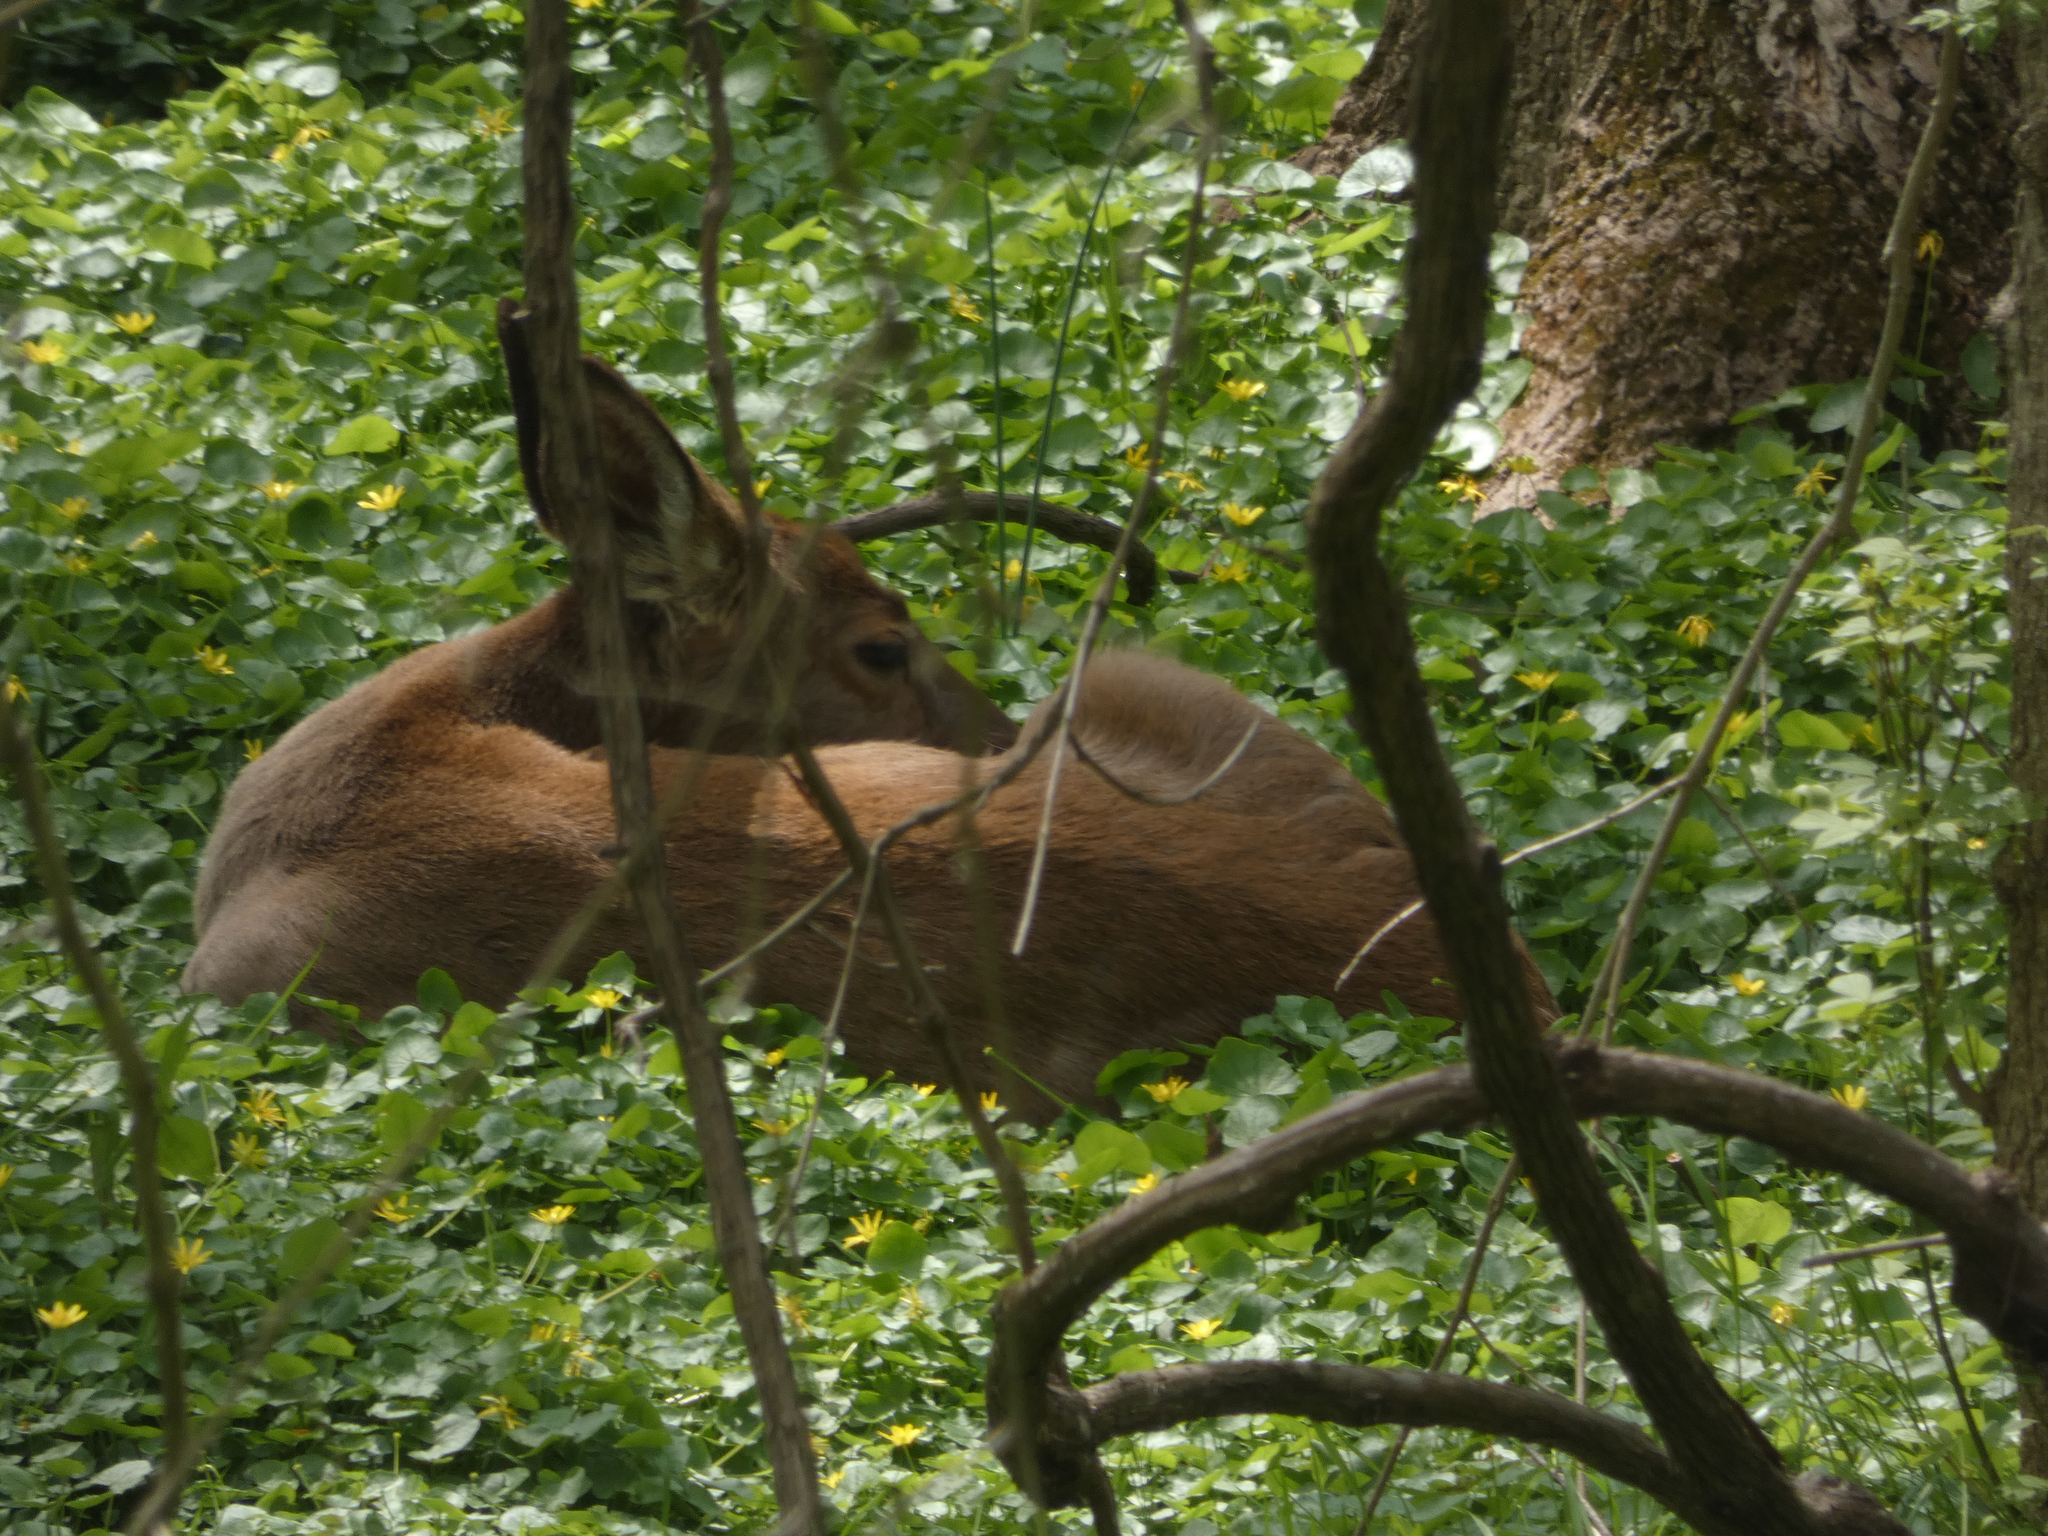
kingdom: Animalia
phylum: Chordata
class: Mammalia
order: Artiodactyla
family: Cervidae
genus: Odocoileus
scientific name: Odocoileus virginianus
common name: White-tailed deer
